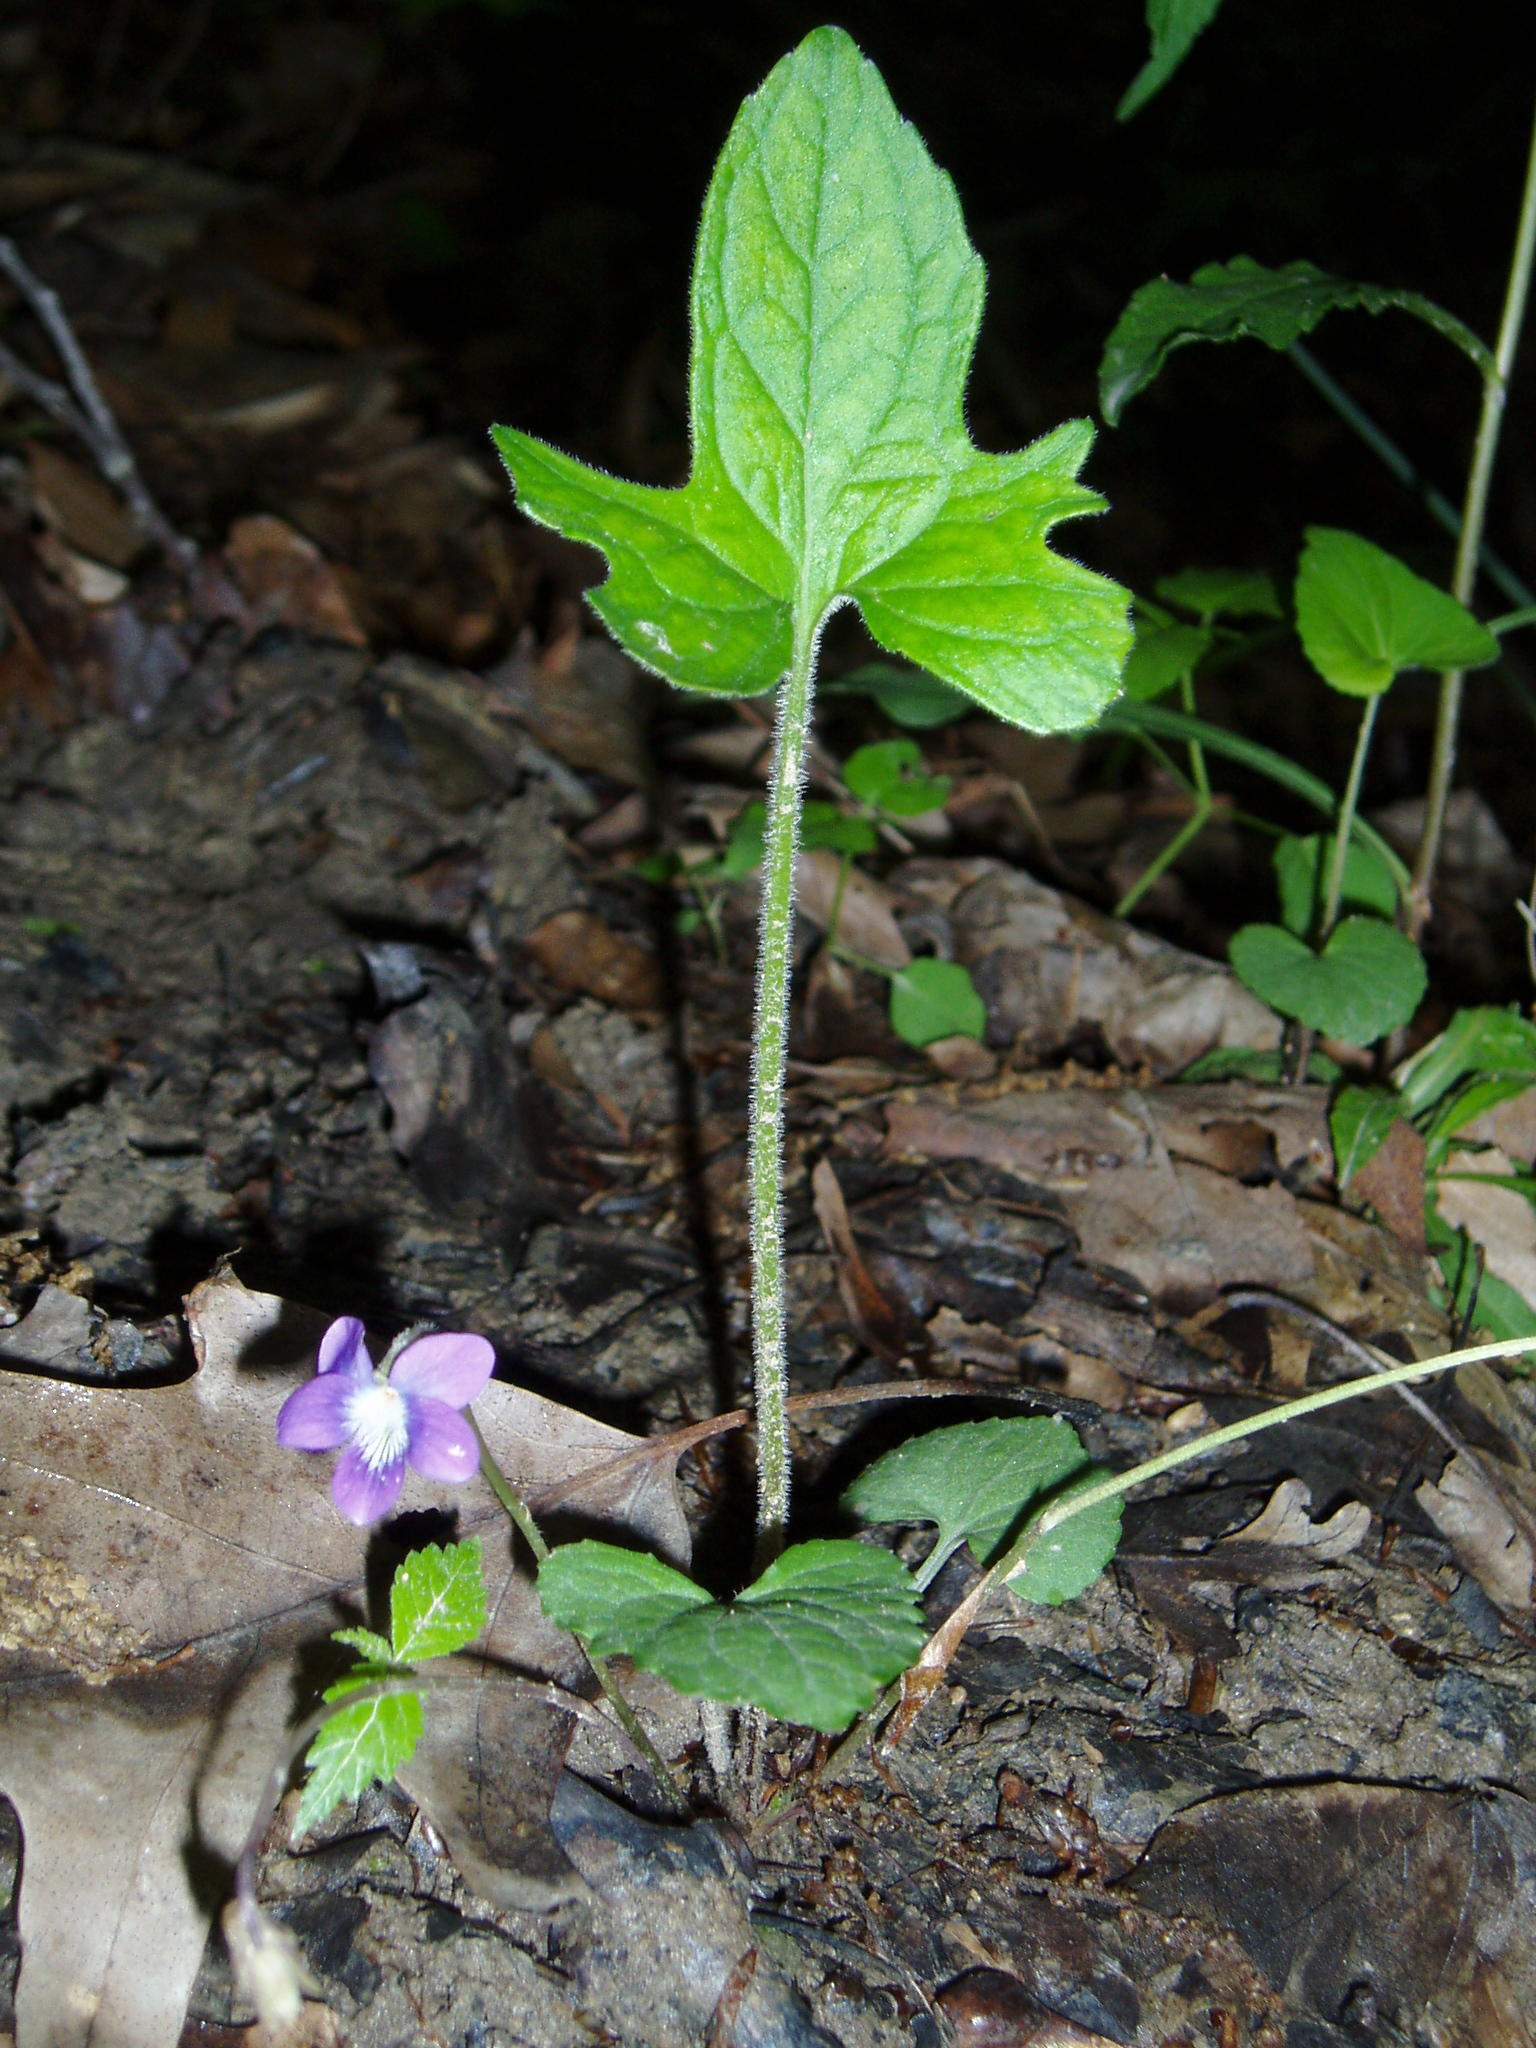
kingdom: Plantae
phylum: Tracheophyta
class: Magnoliopsida
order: Malpighiales
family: Violaceae
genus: Viola
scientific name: Viola palmata
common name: Early blue violet
